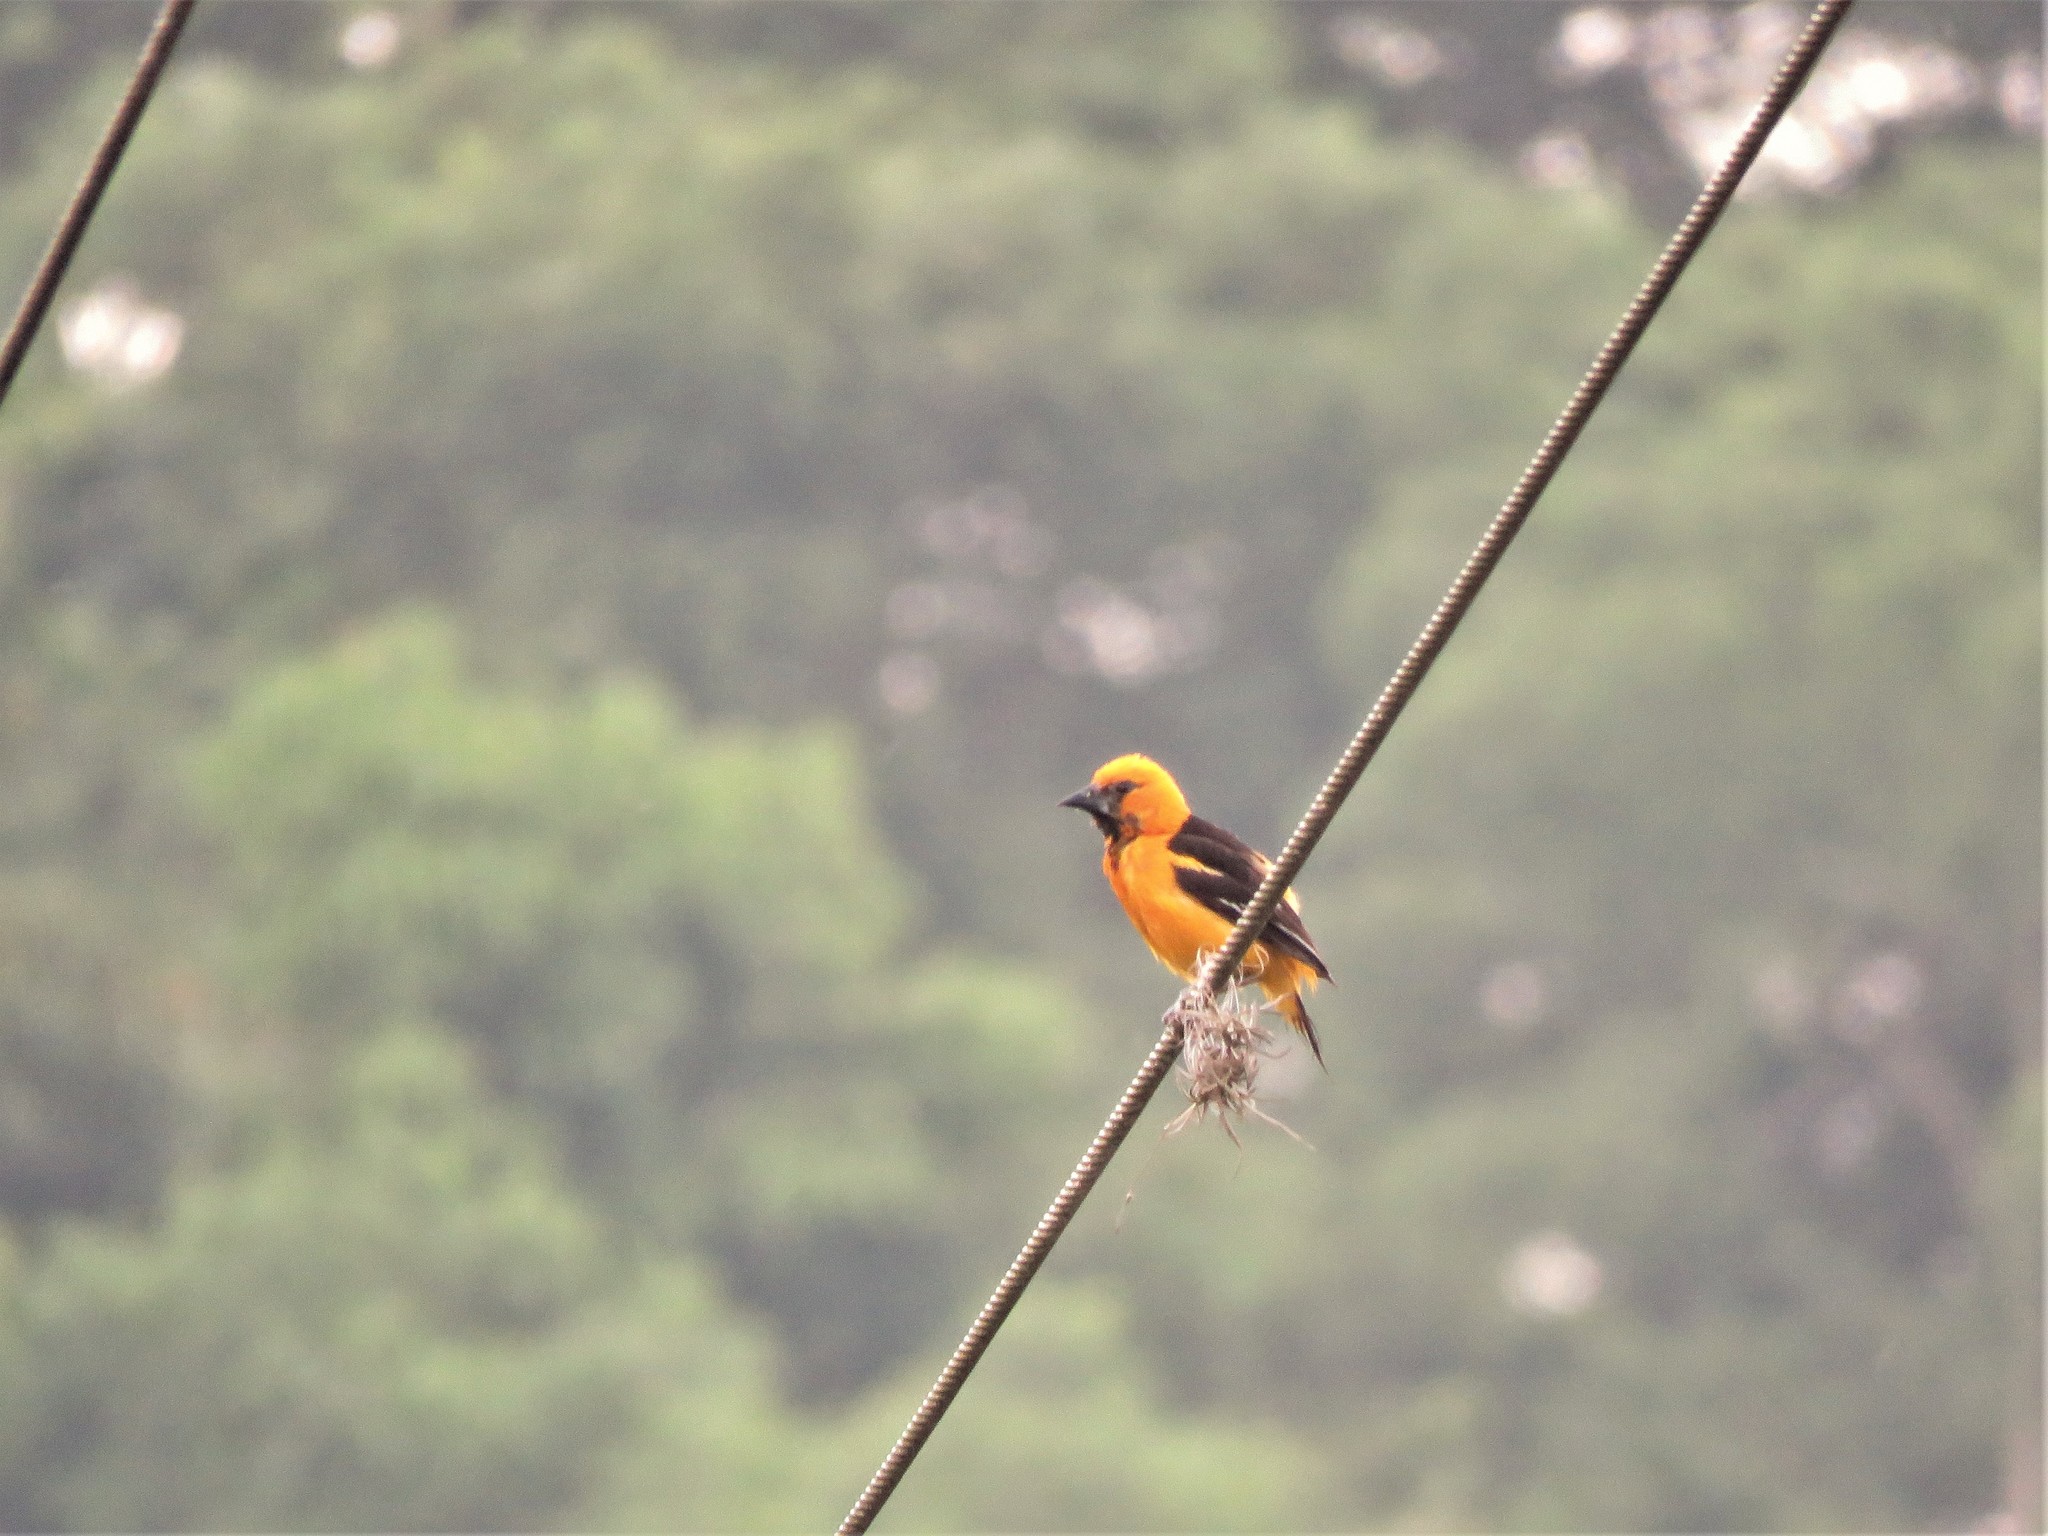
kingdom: Animalia
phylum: Chordata
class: Aves
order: Passeriformes
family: Icteridae
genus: Icterus
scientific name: Icterus gularis
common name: Altamira oriole
